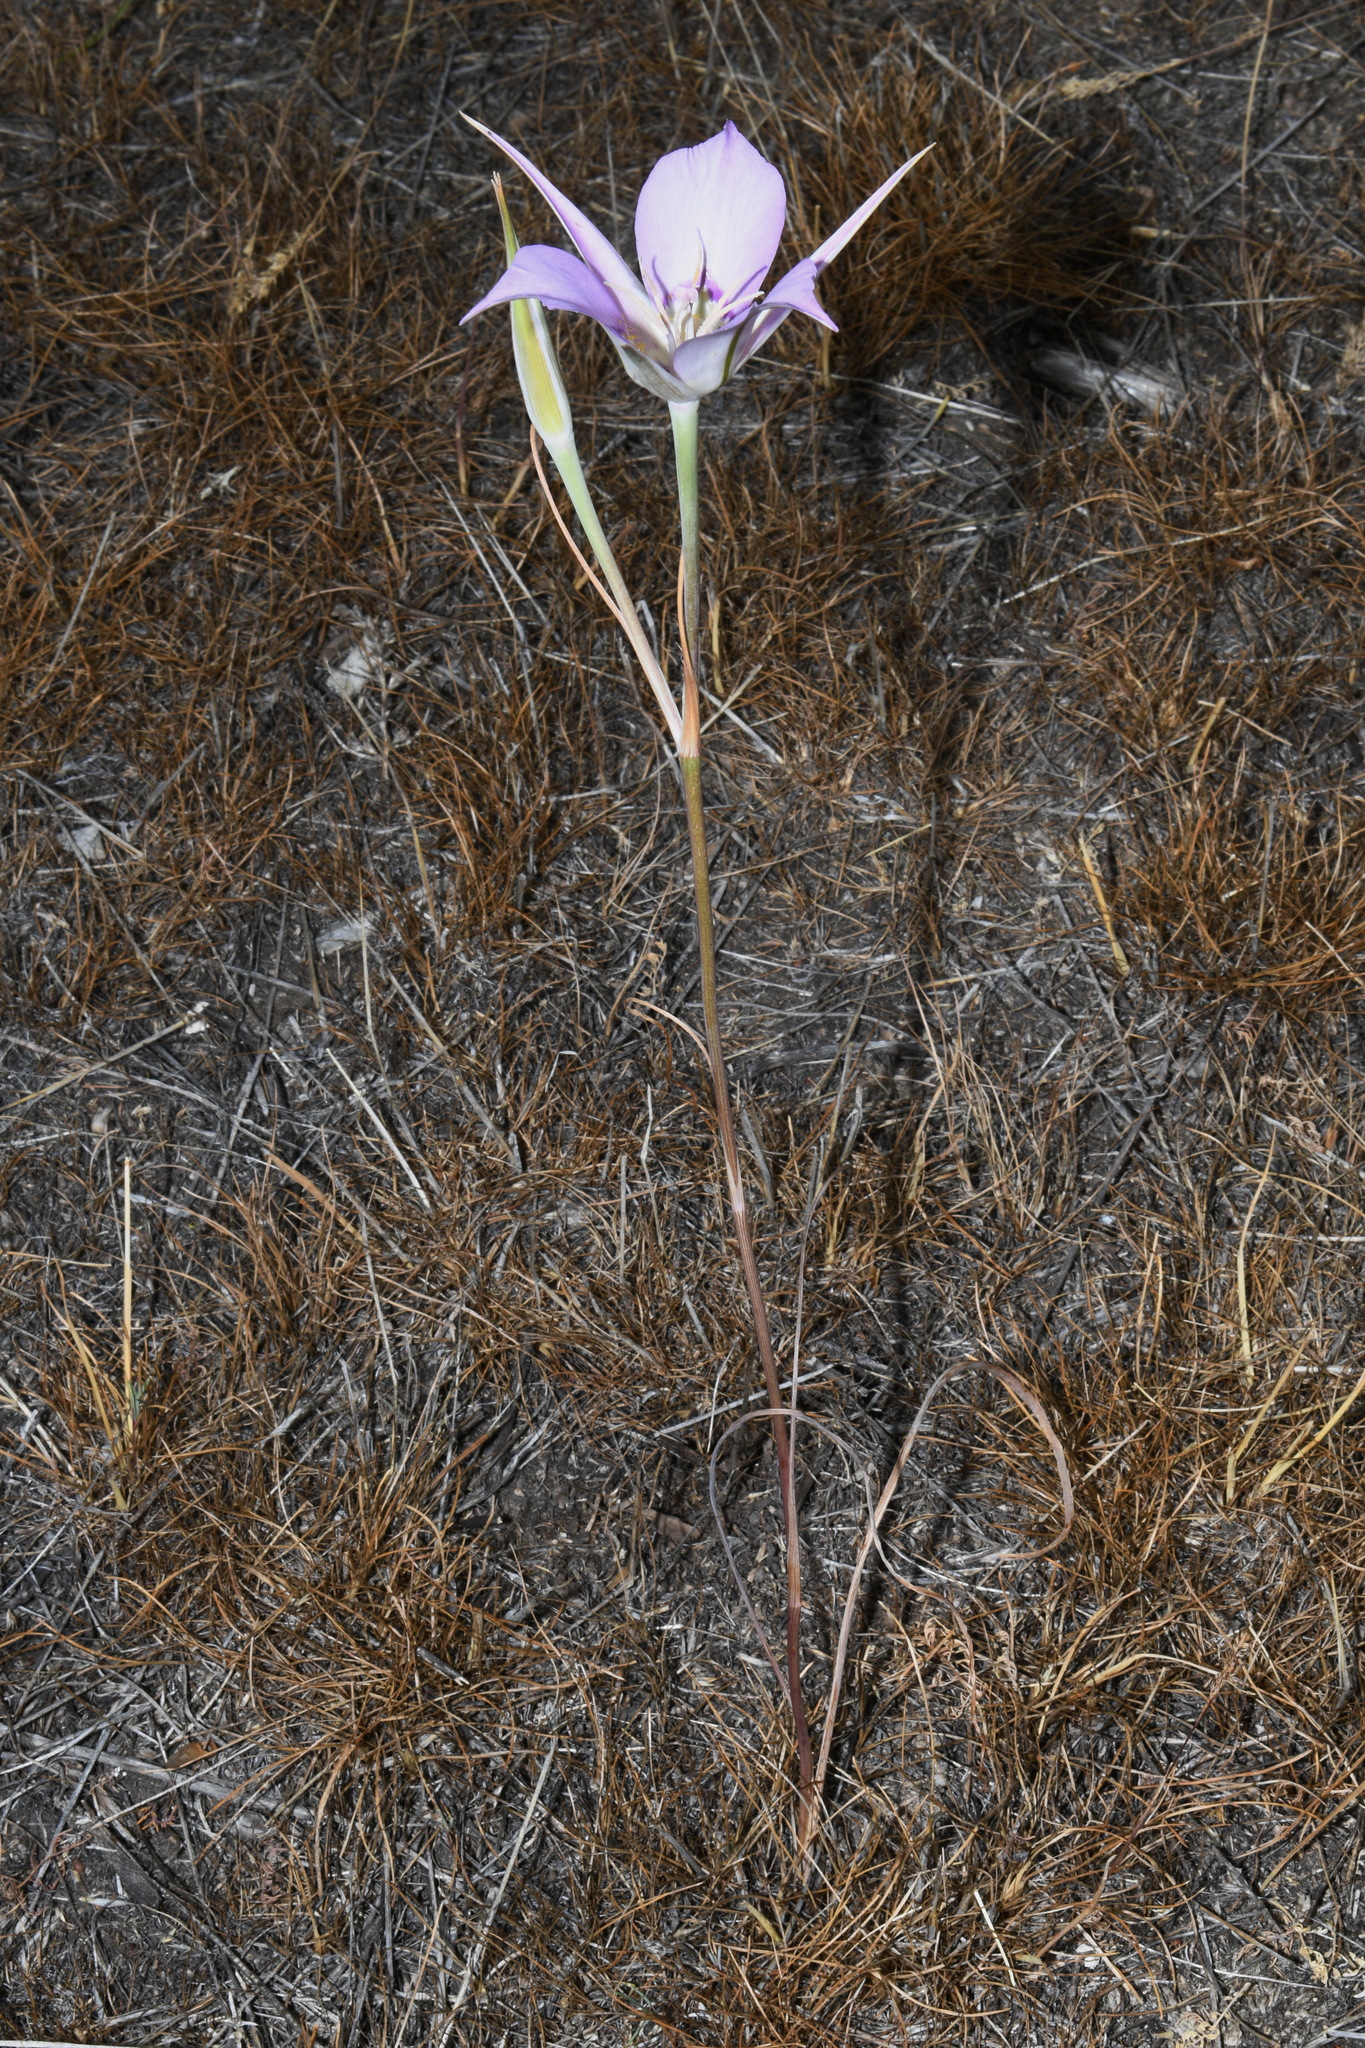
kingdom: Plantae
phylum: Tracheophyta
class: Liliopsida
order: Liliales
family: Liliaceae
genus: Calochortus
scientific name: Calochortus macrocarpus
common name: Green-band mariposa lily
